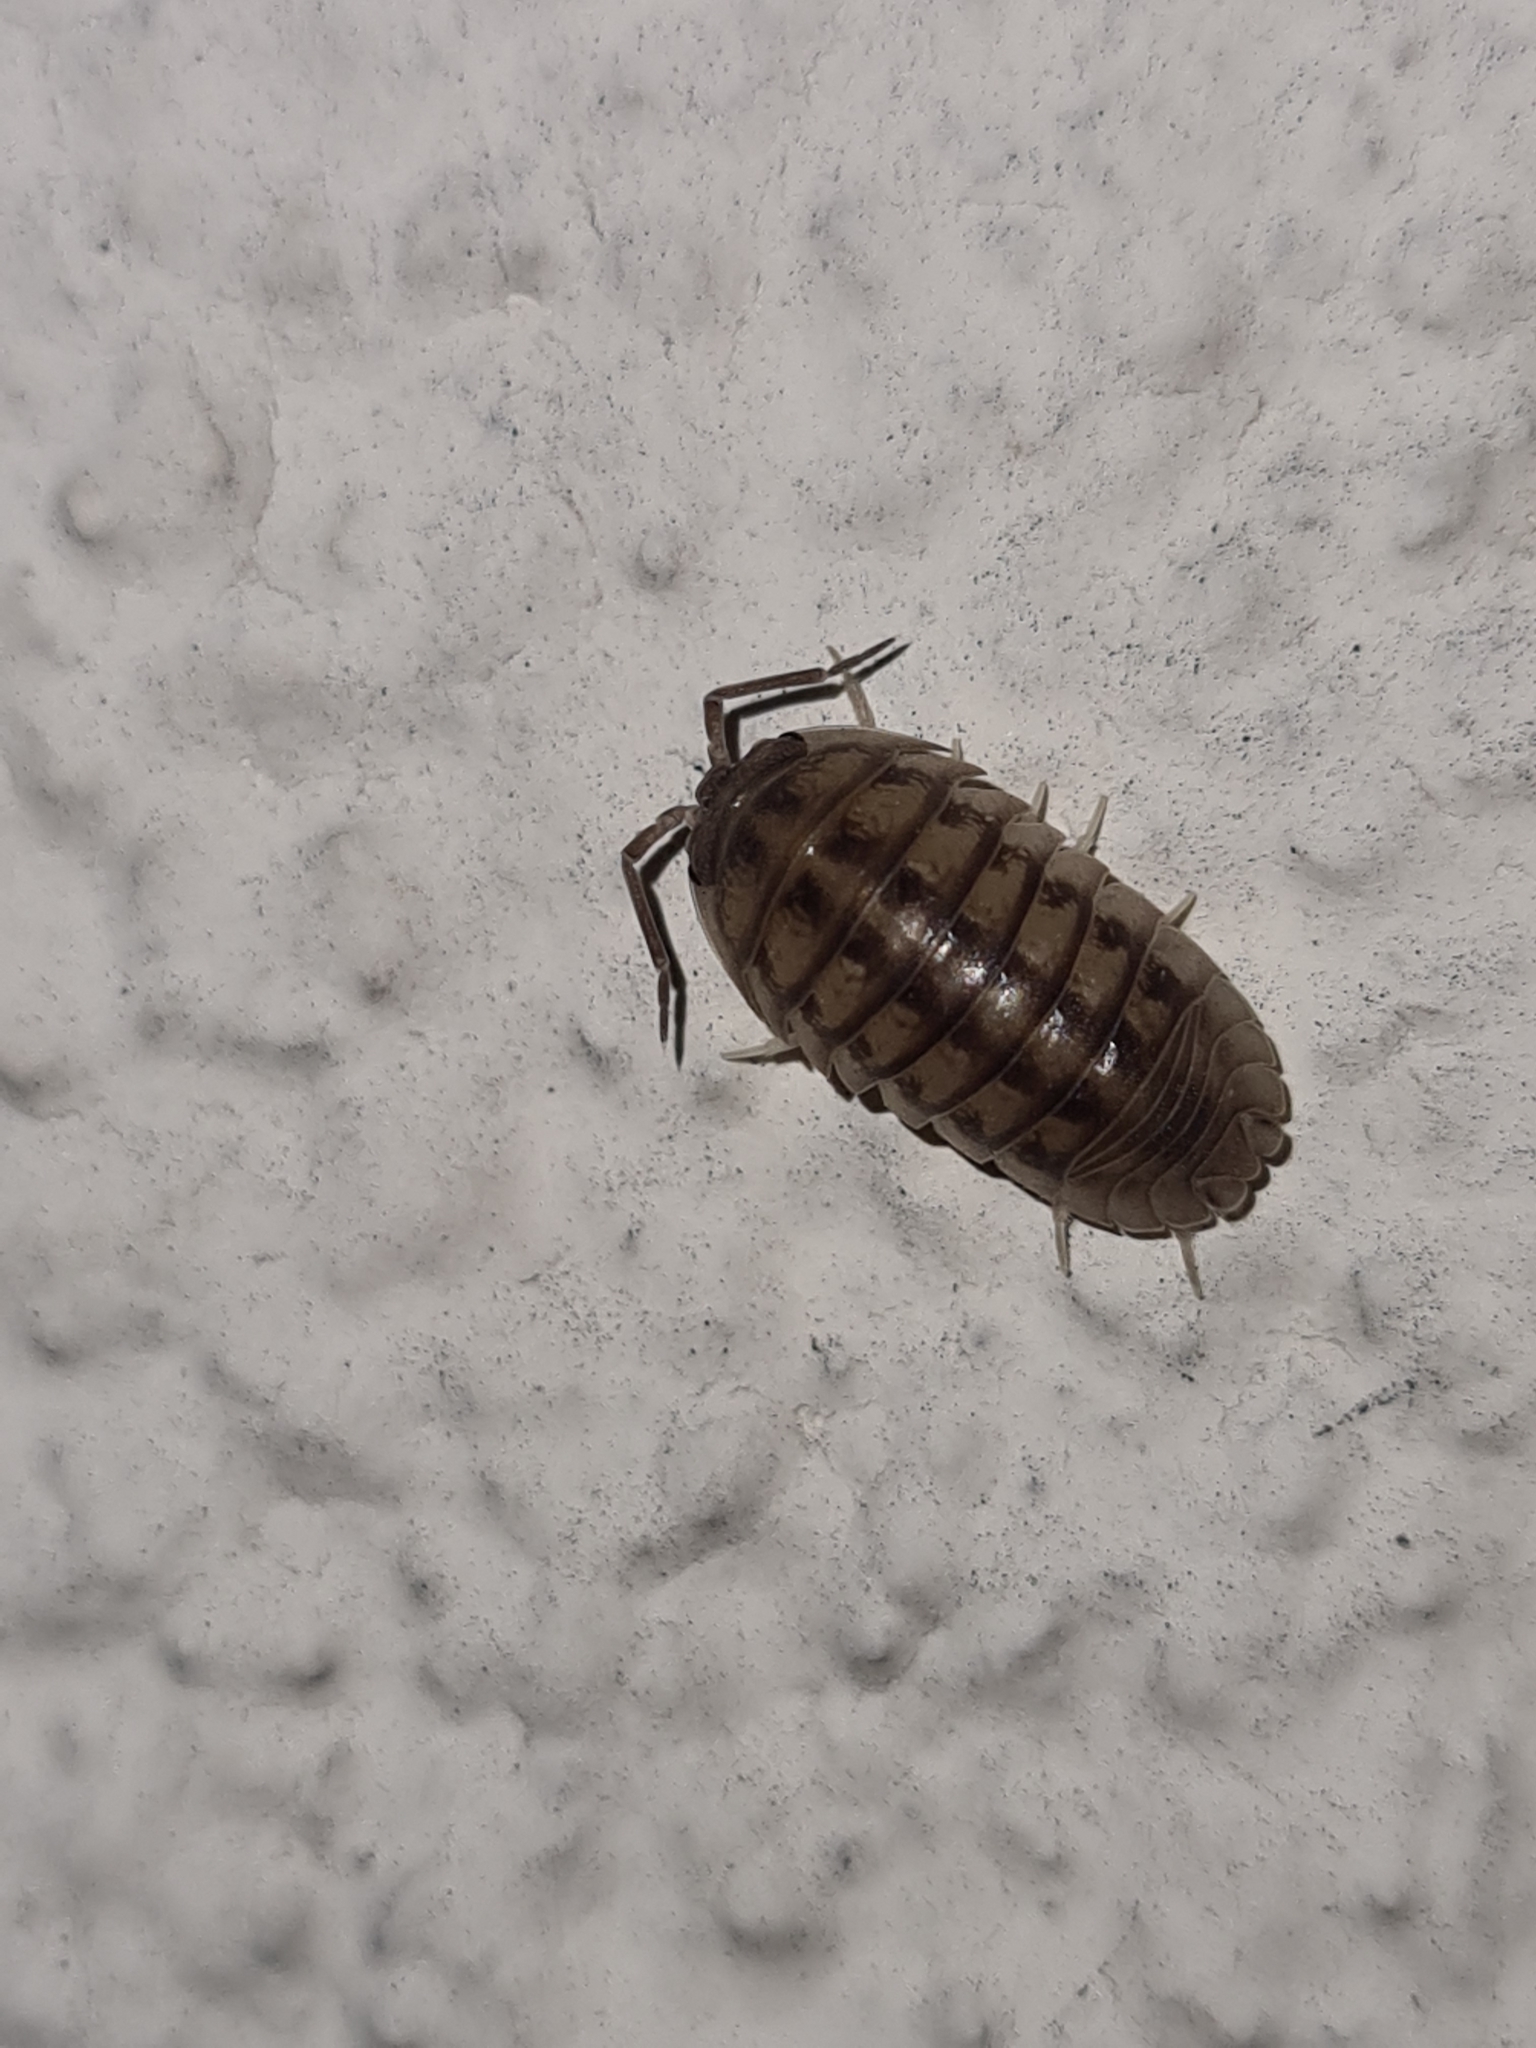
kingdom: Animalia
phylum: Arthropoda
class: Malacostraca
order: Isopoda
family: Armadillidiidae
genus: Armadillidium
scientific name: Armadillidium nasatum
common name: Isopod
